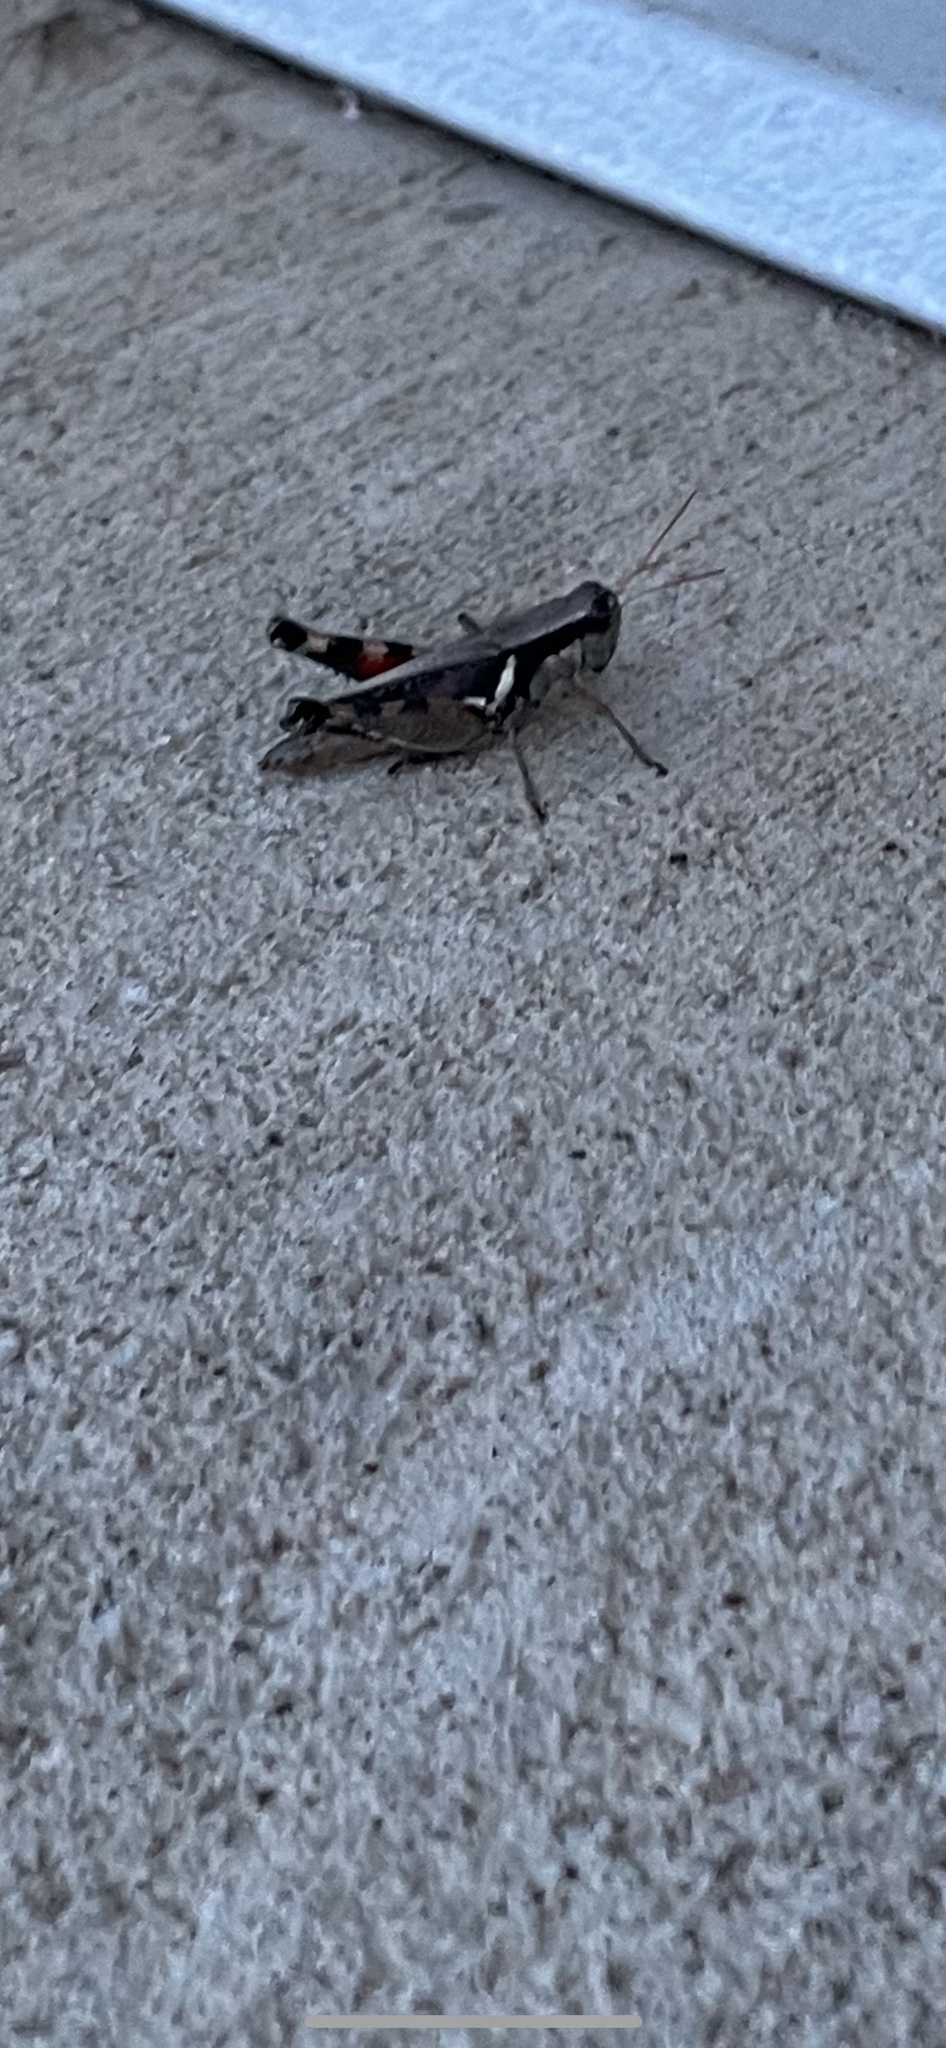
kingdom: Animalia
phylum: Arthropoda
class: Insecta
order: Orthoptera
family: Acrididae
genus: Melanoplus
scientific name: Melanoplus glaucipes
